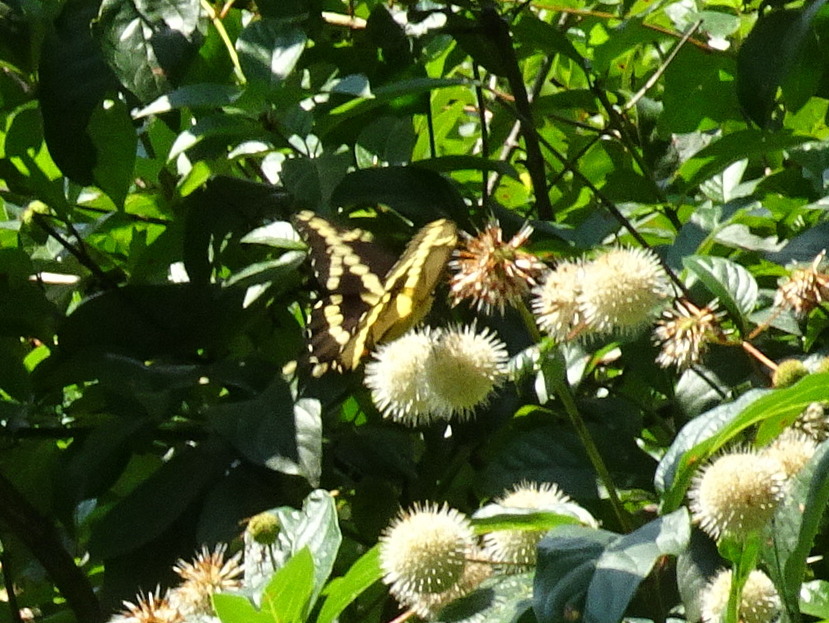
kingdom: Animalia
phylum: Arthropoda
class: Insecta
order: Lepidoptera
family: Papilionidae
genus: Papilio
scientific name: Papilio cresphontes
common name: Giant swallowtail
